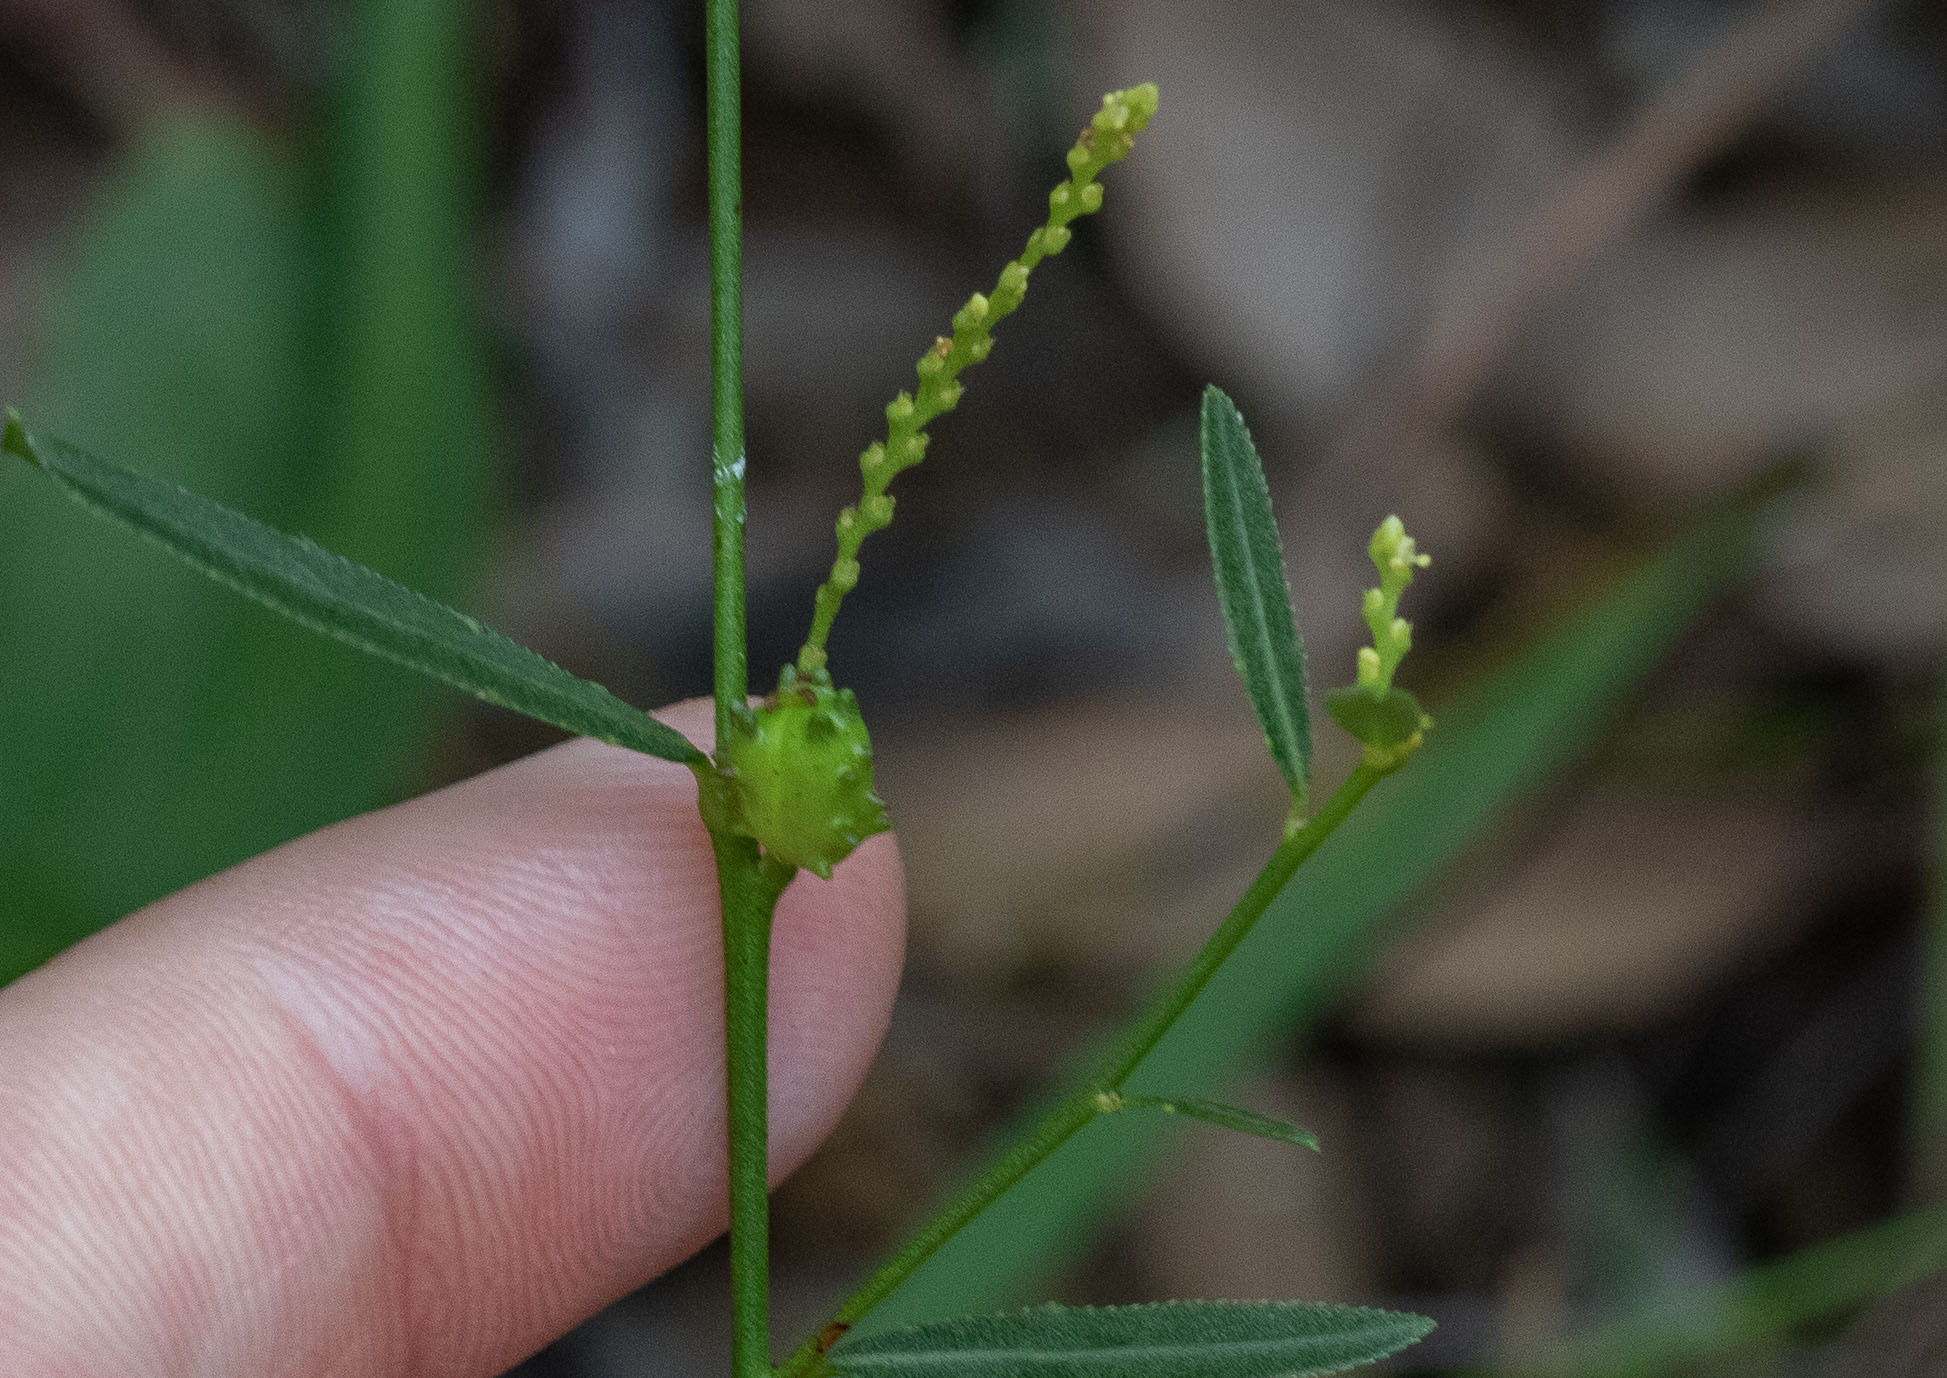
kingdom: Plantae
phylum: Tracheophyta
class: Magnoliopsida
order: Malpighiales
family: Euphorbiaceae
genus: Microstachys
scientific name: Microstachys serrulata
